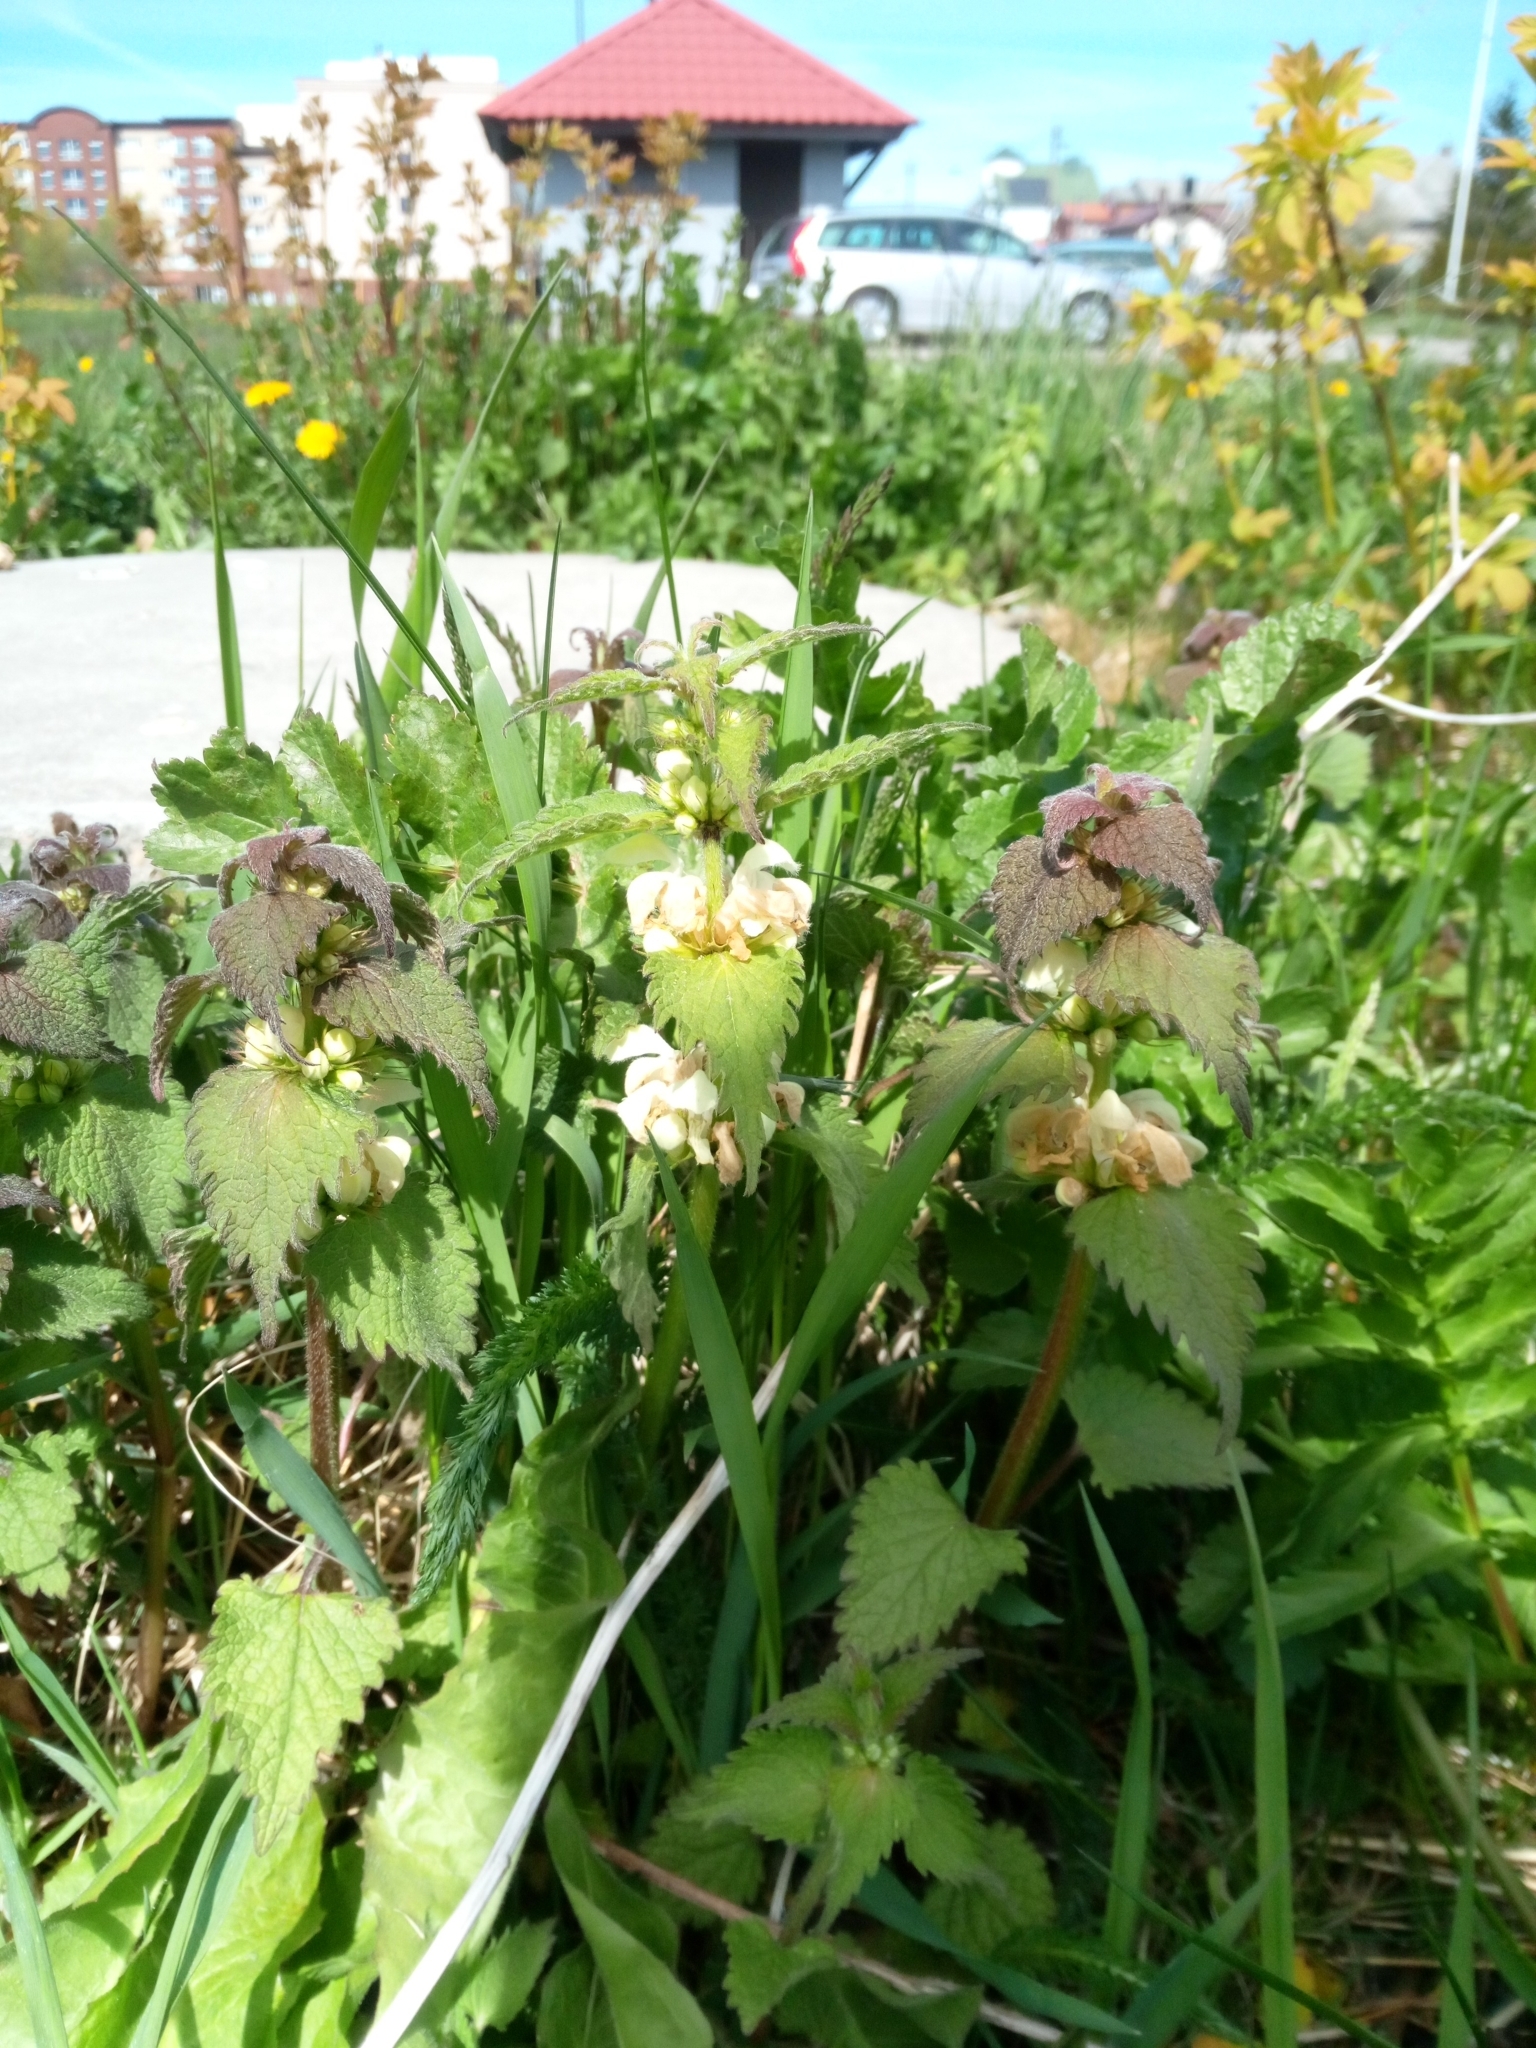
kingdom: Plantae
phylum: Tracheophyta
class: Magnoliopsida
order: Lamiales
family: Lamiaceae
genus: Lamium
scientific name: Lamium album
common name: White dead-nettle
